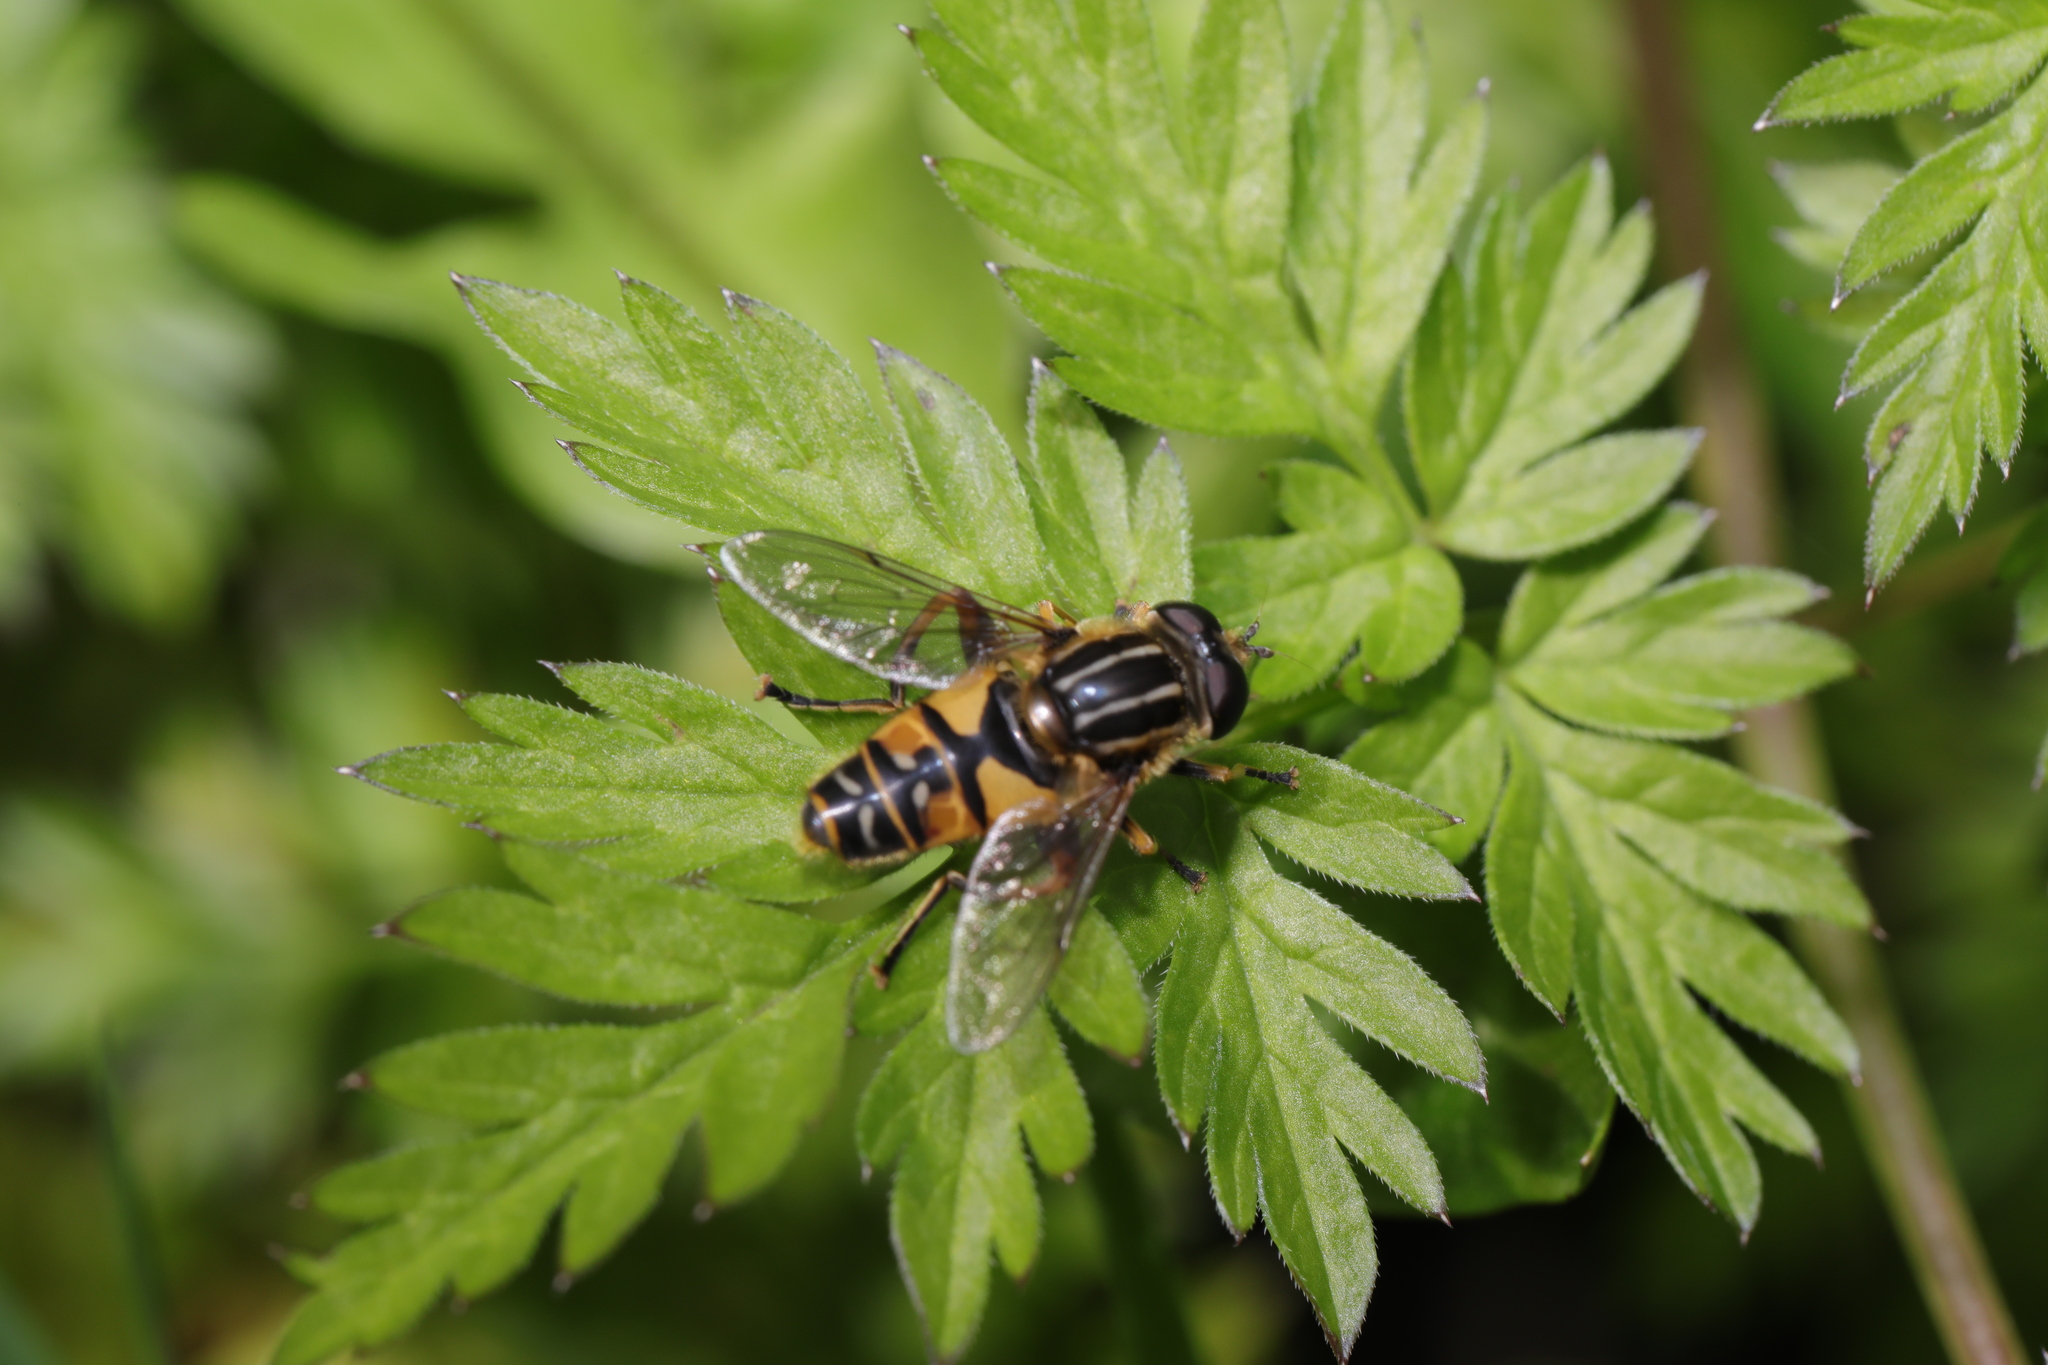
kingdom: Animalia
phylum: Arthropoda
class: Insecta
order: Diptera
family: Syrphidae
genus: Helophilus
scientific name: Helophilus pendulus
